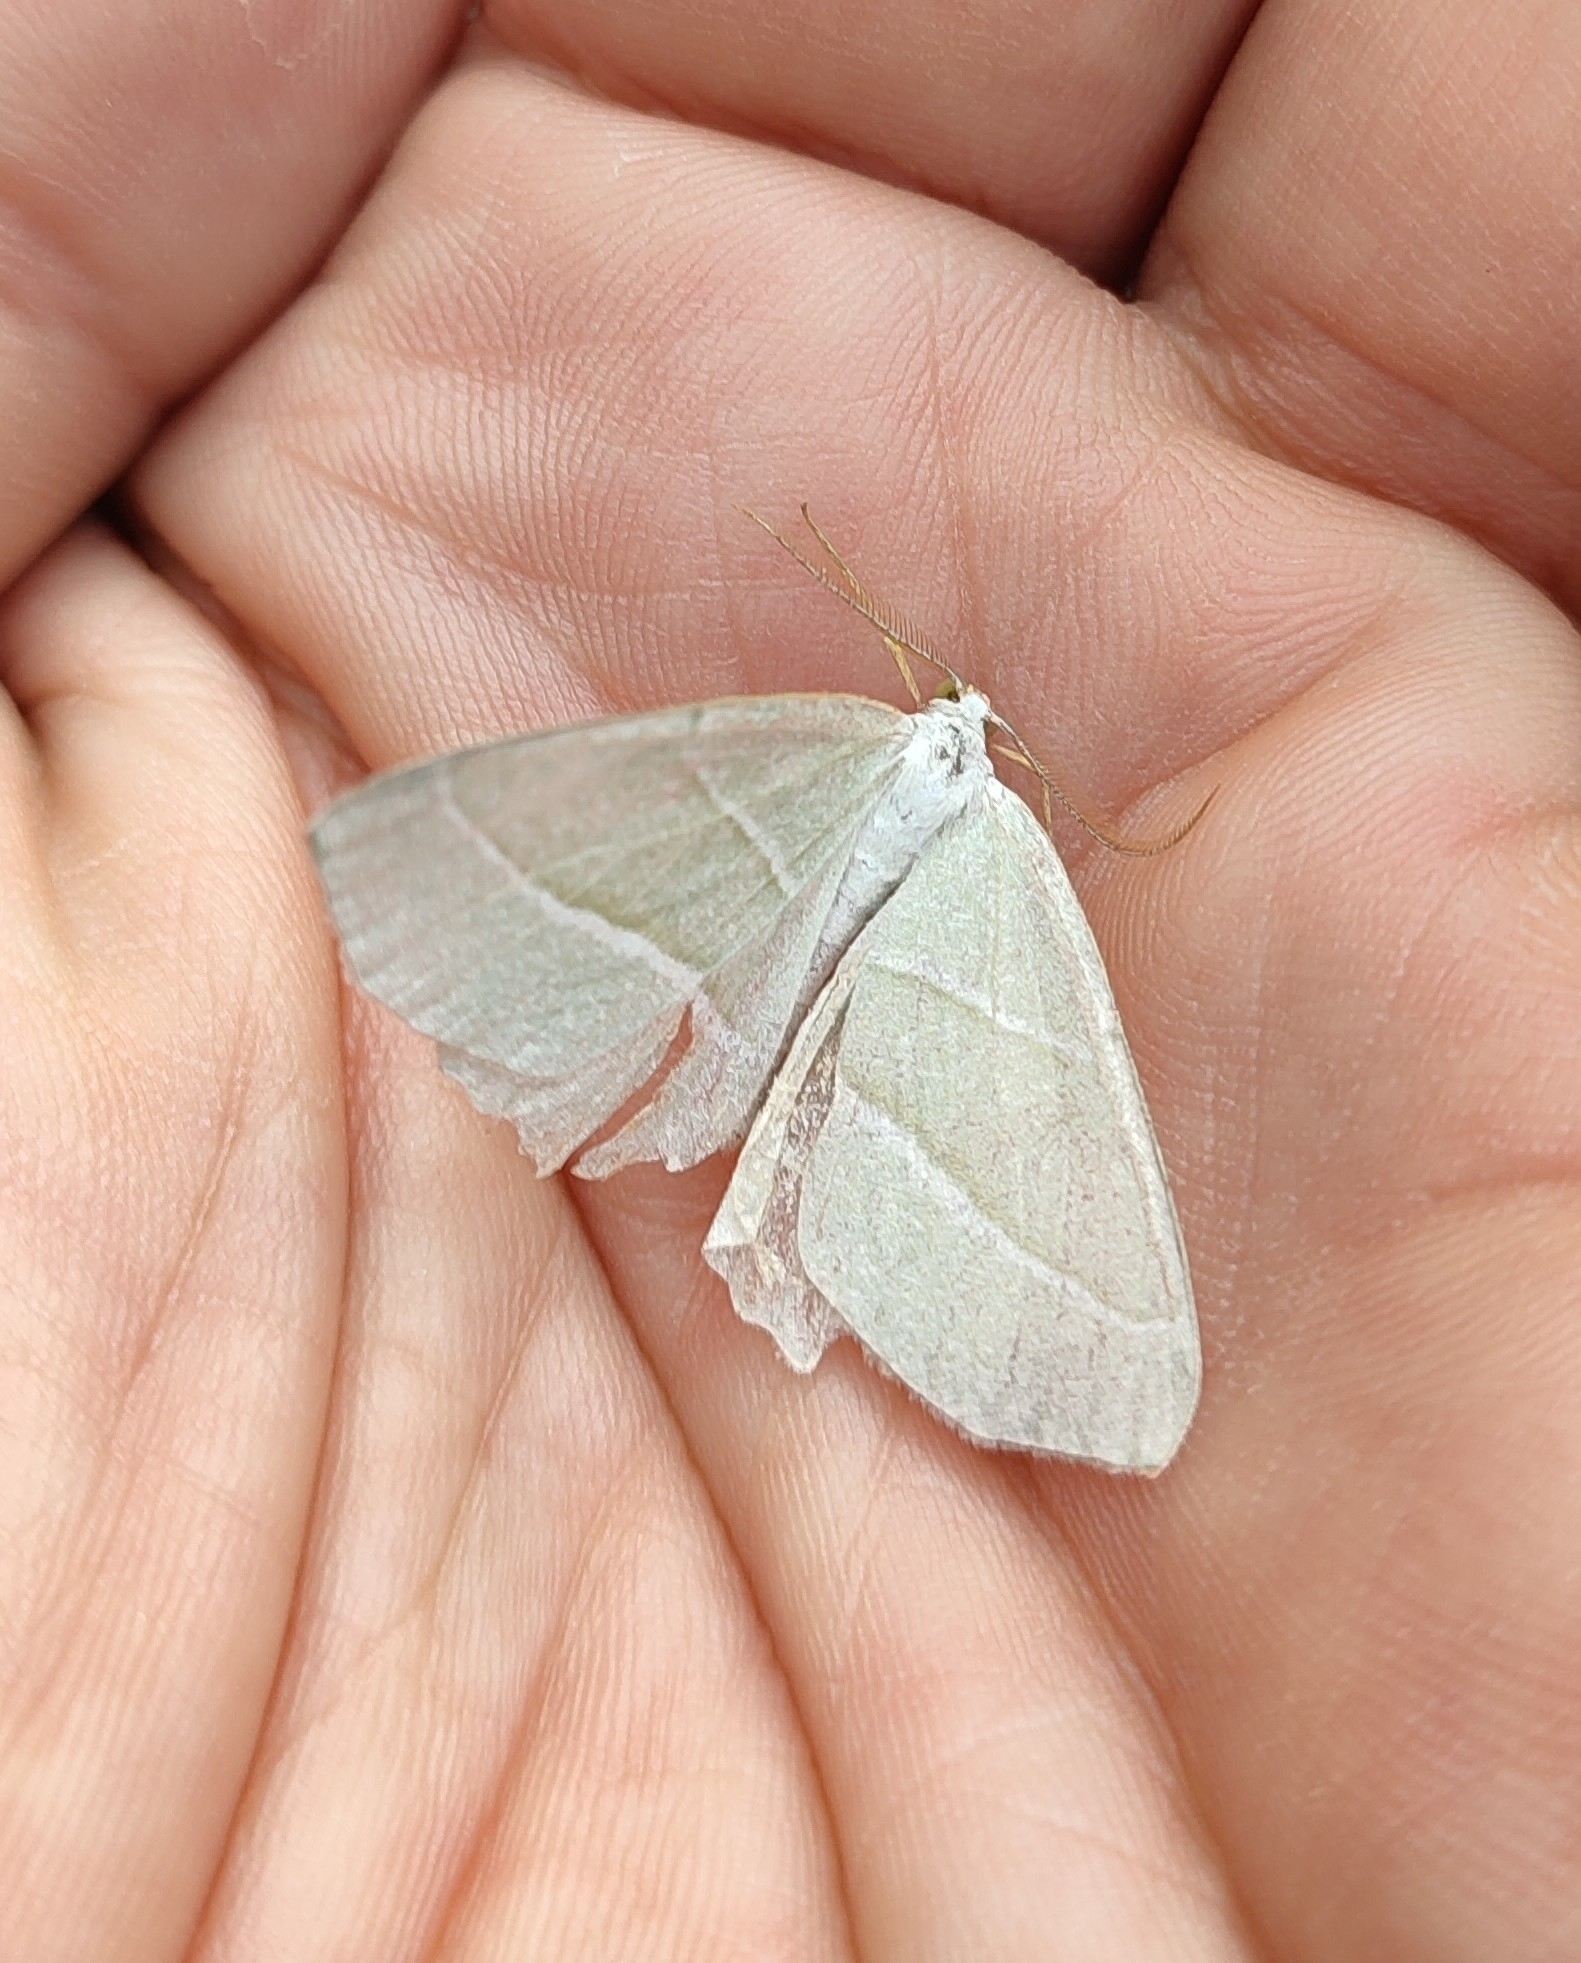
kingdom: Animalia
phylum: Arthropoda
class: Insecta
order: Lepidoptera
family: Geometridae
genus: Campaea
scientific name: Campaea margaritaria
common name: Light emerald
